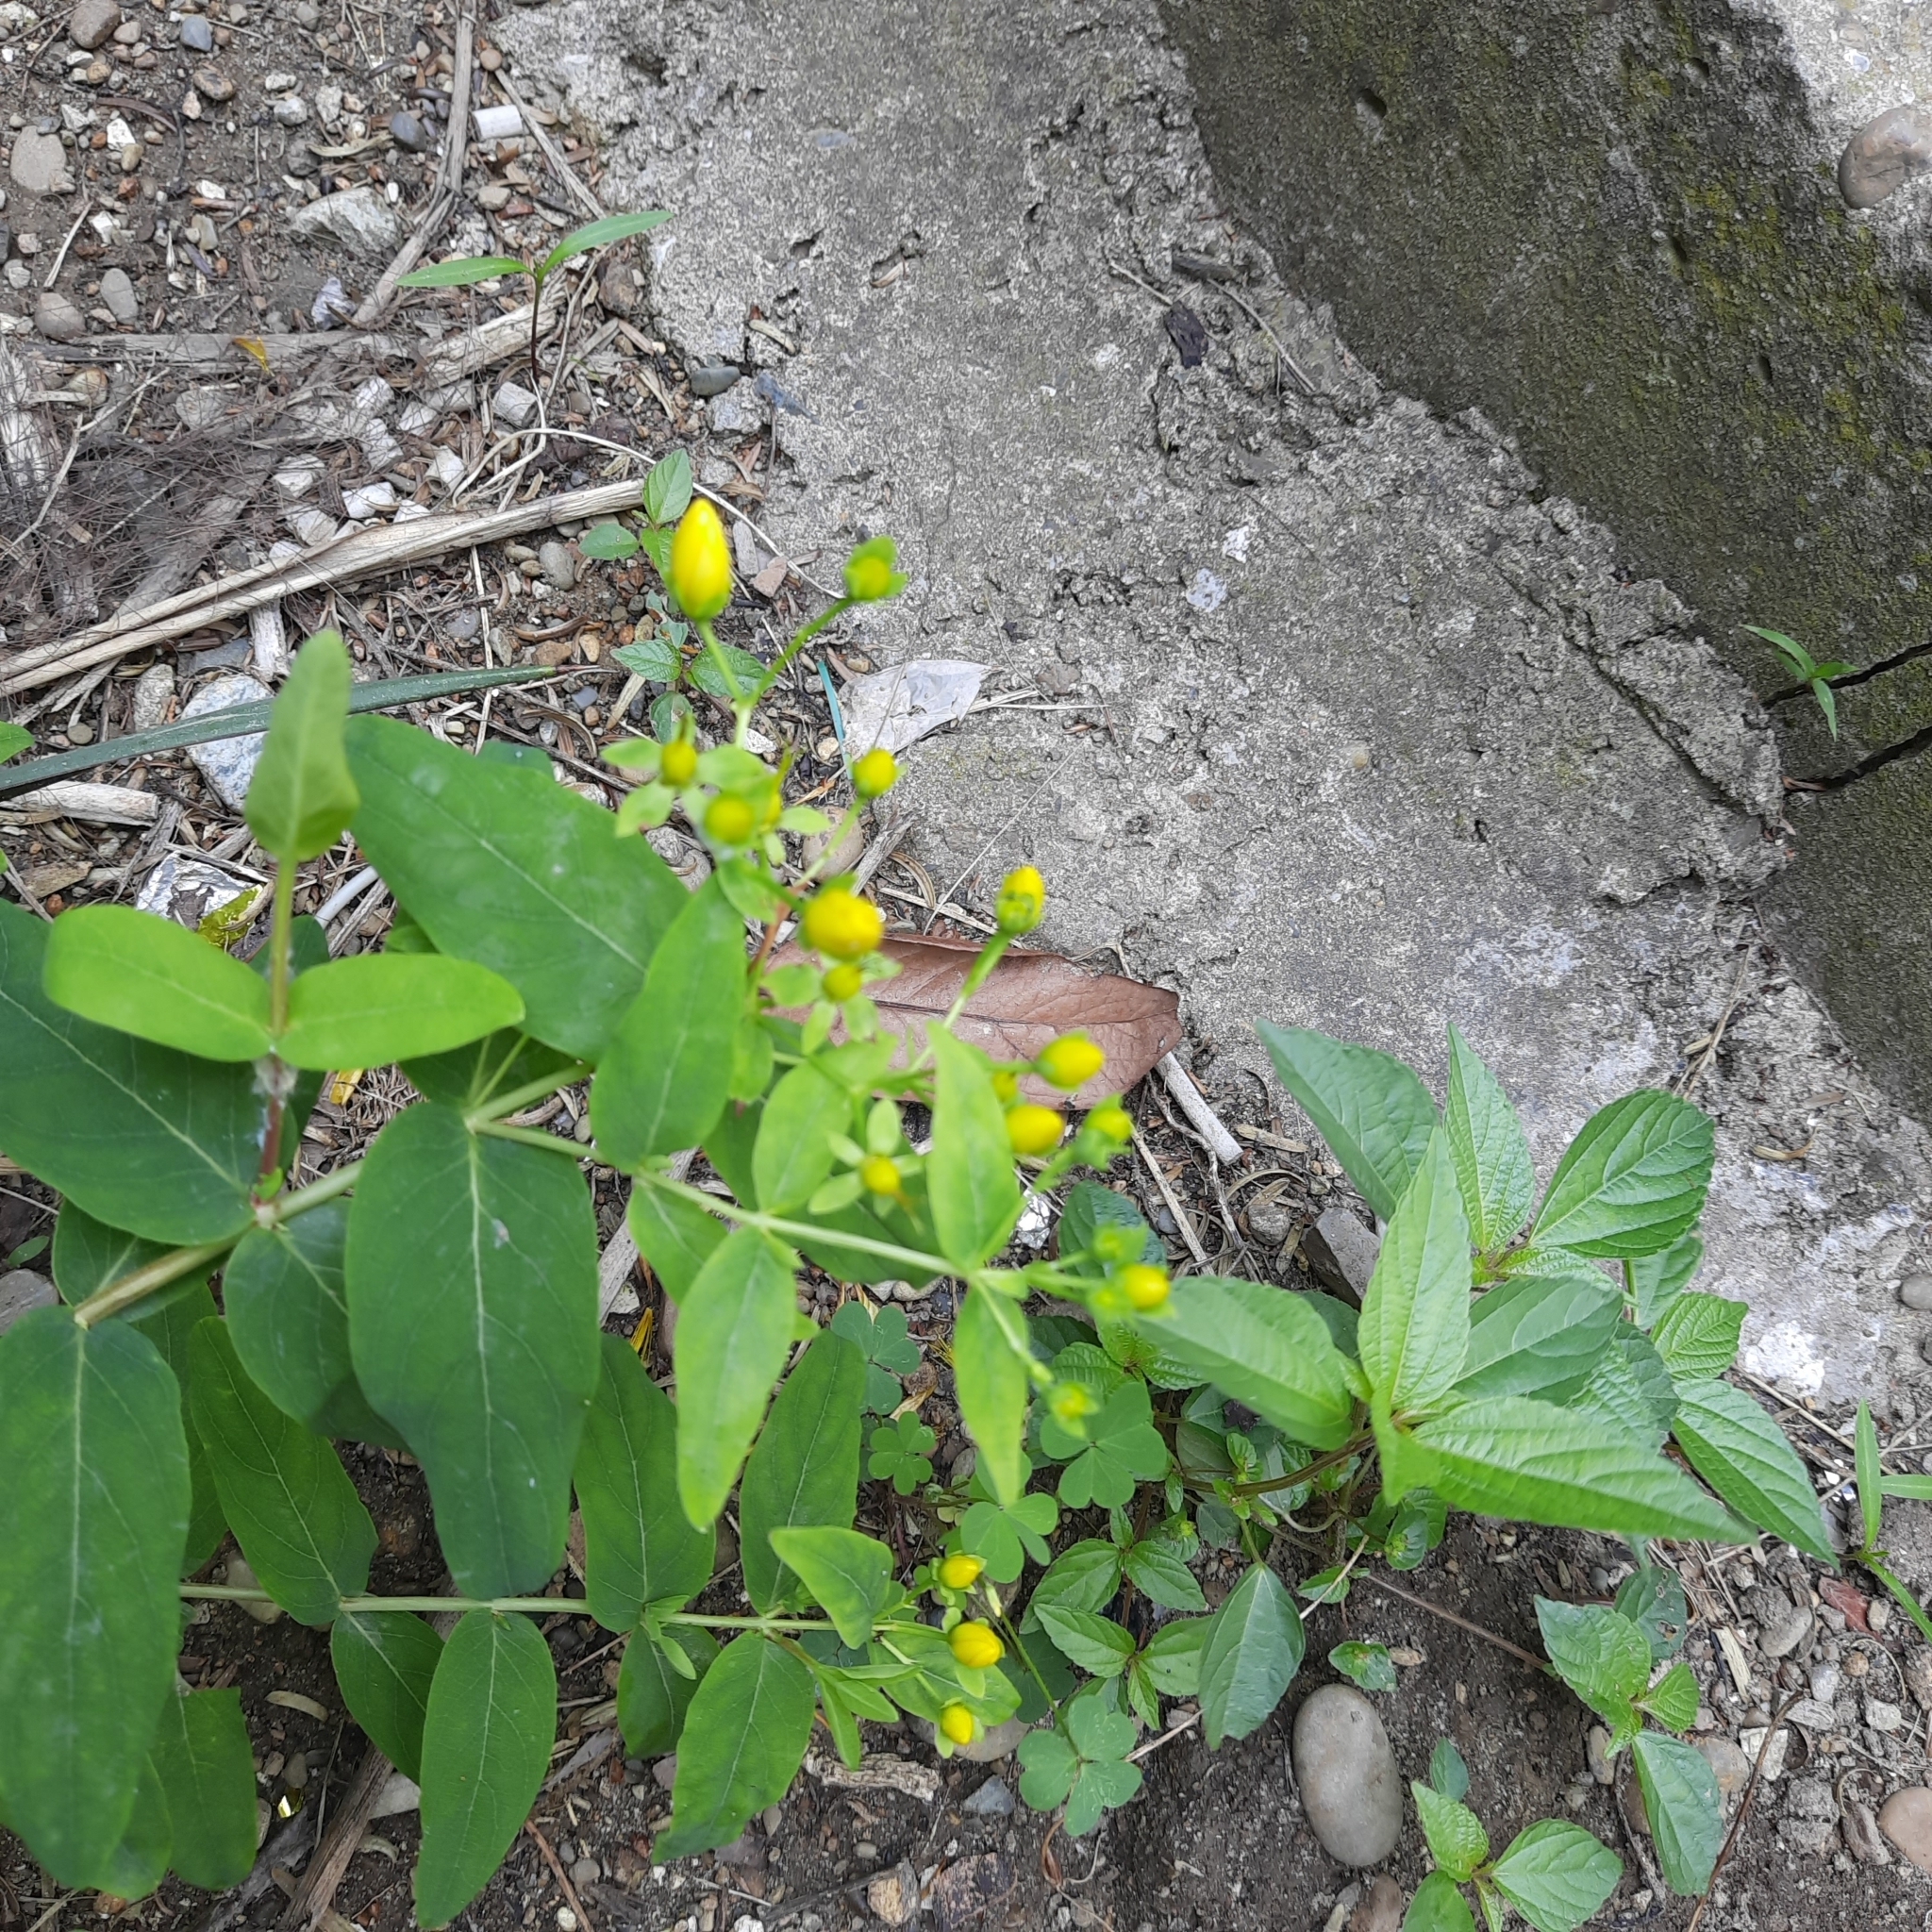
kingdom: Plantae
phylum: Tracheophyta
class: Magnoliopsida
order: Malpighiales
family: Hypericaceae
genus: Hypericum
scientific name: Hypericum androsaemum
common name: Sweet-amber
